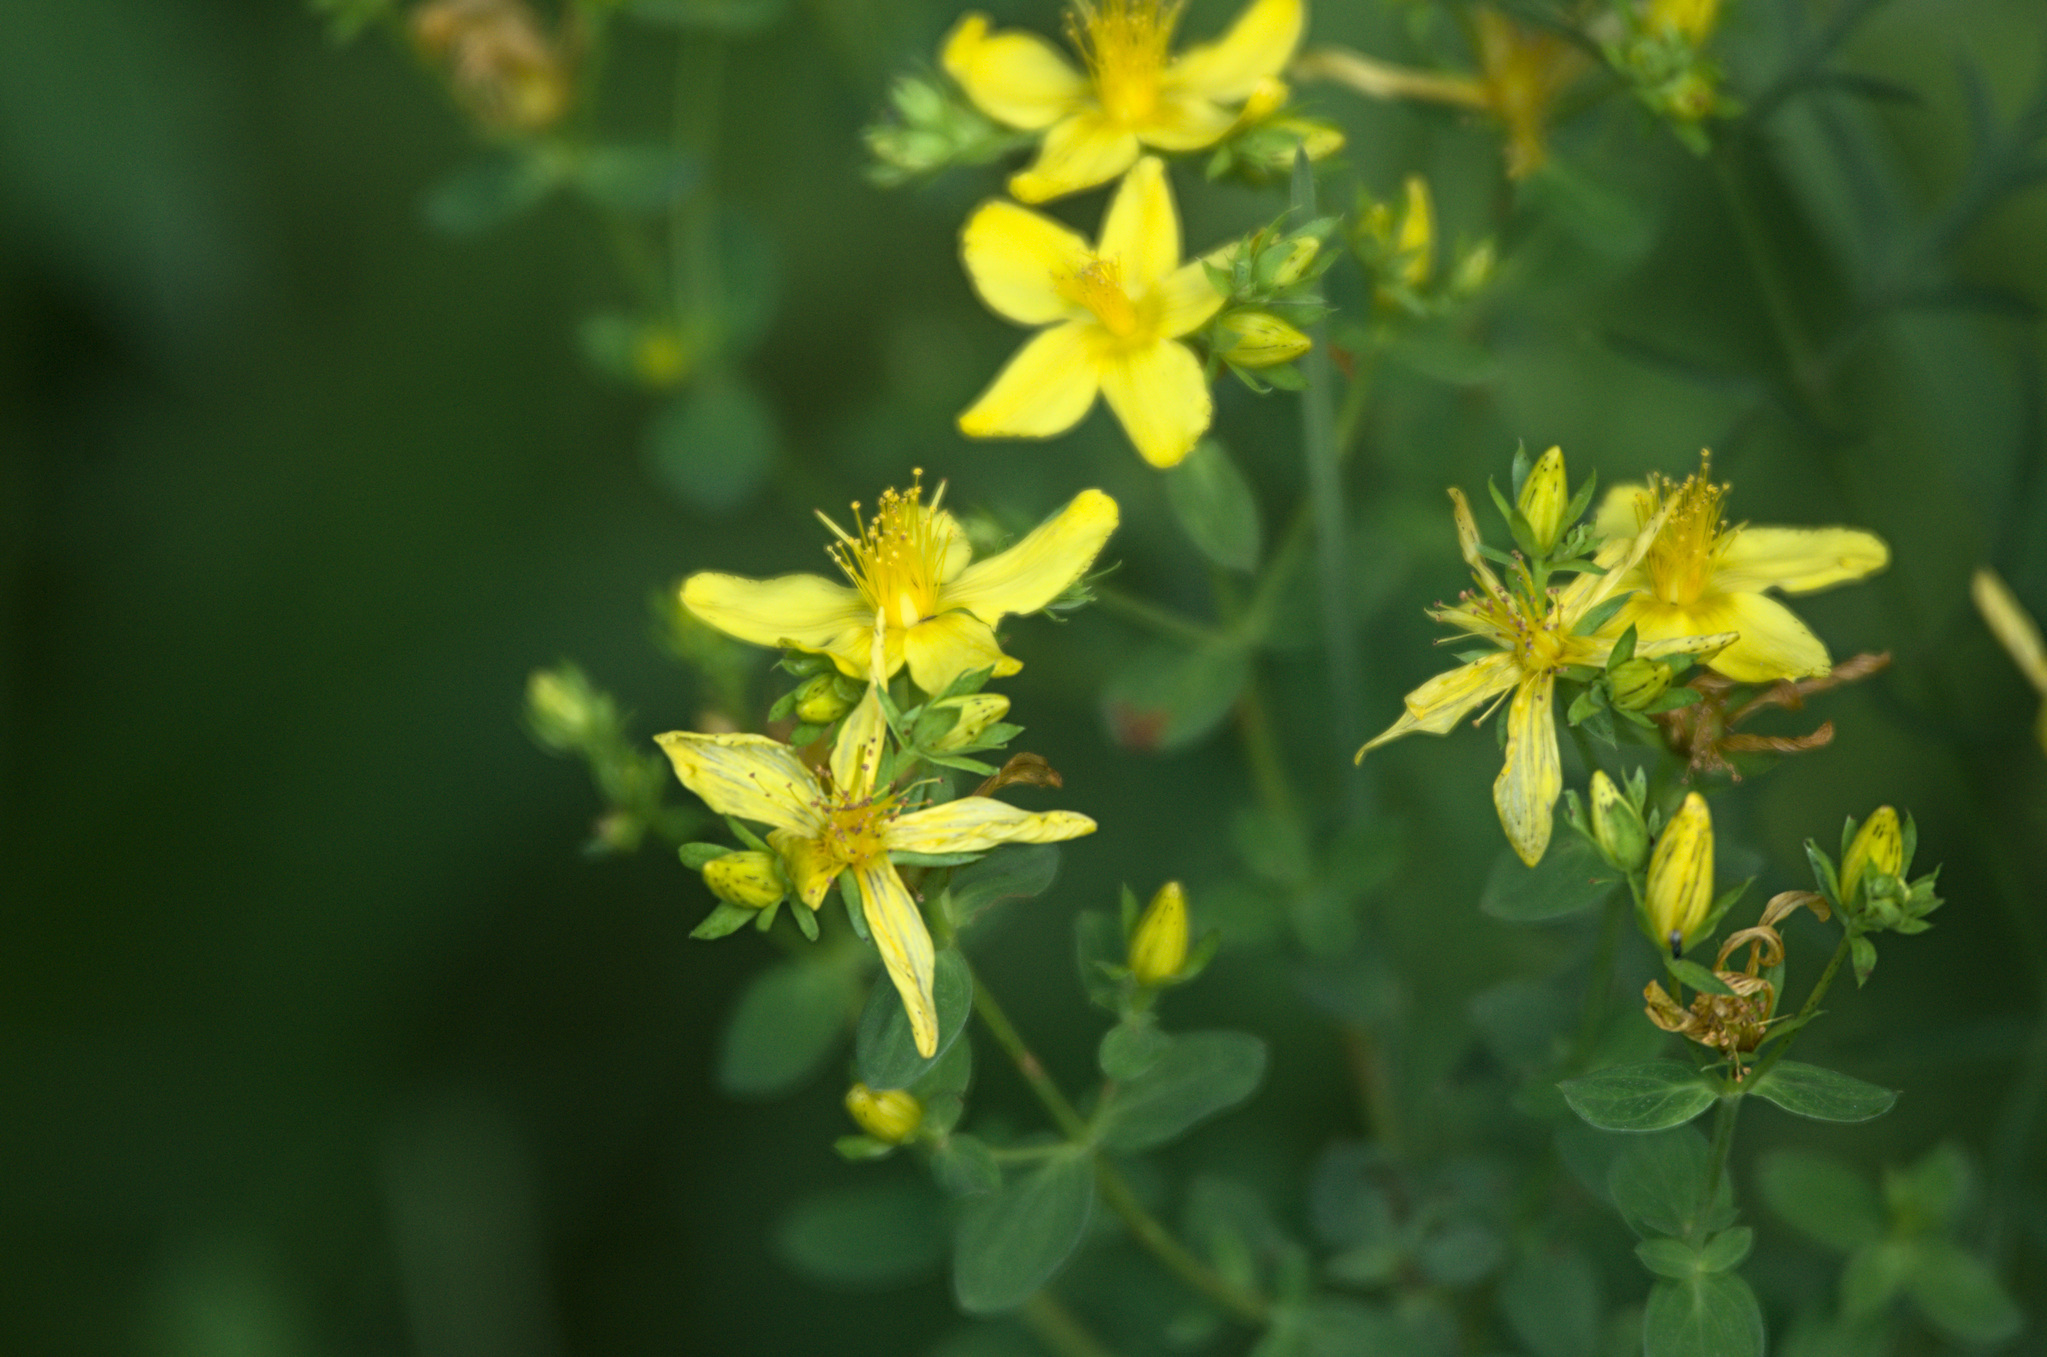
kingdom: Plantae
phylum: Tracheophyta
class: Magnoliopsida
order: Malpighiales
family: Hypericaceae
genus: Hypericum
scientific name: Hypericum perforatum
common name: Common st. johnswort
